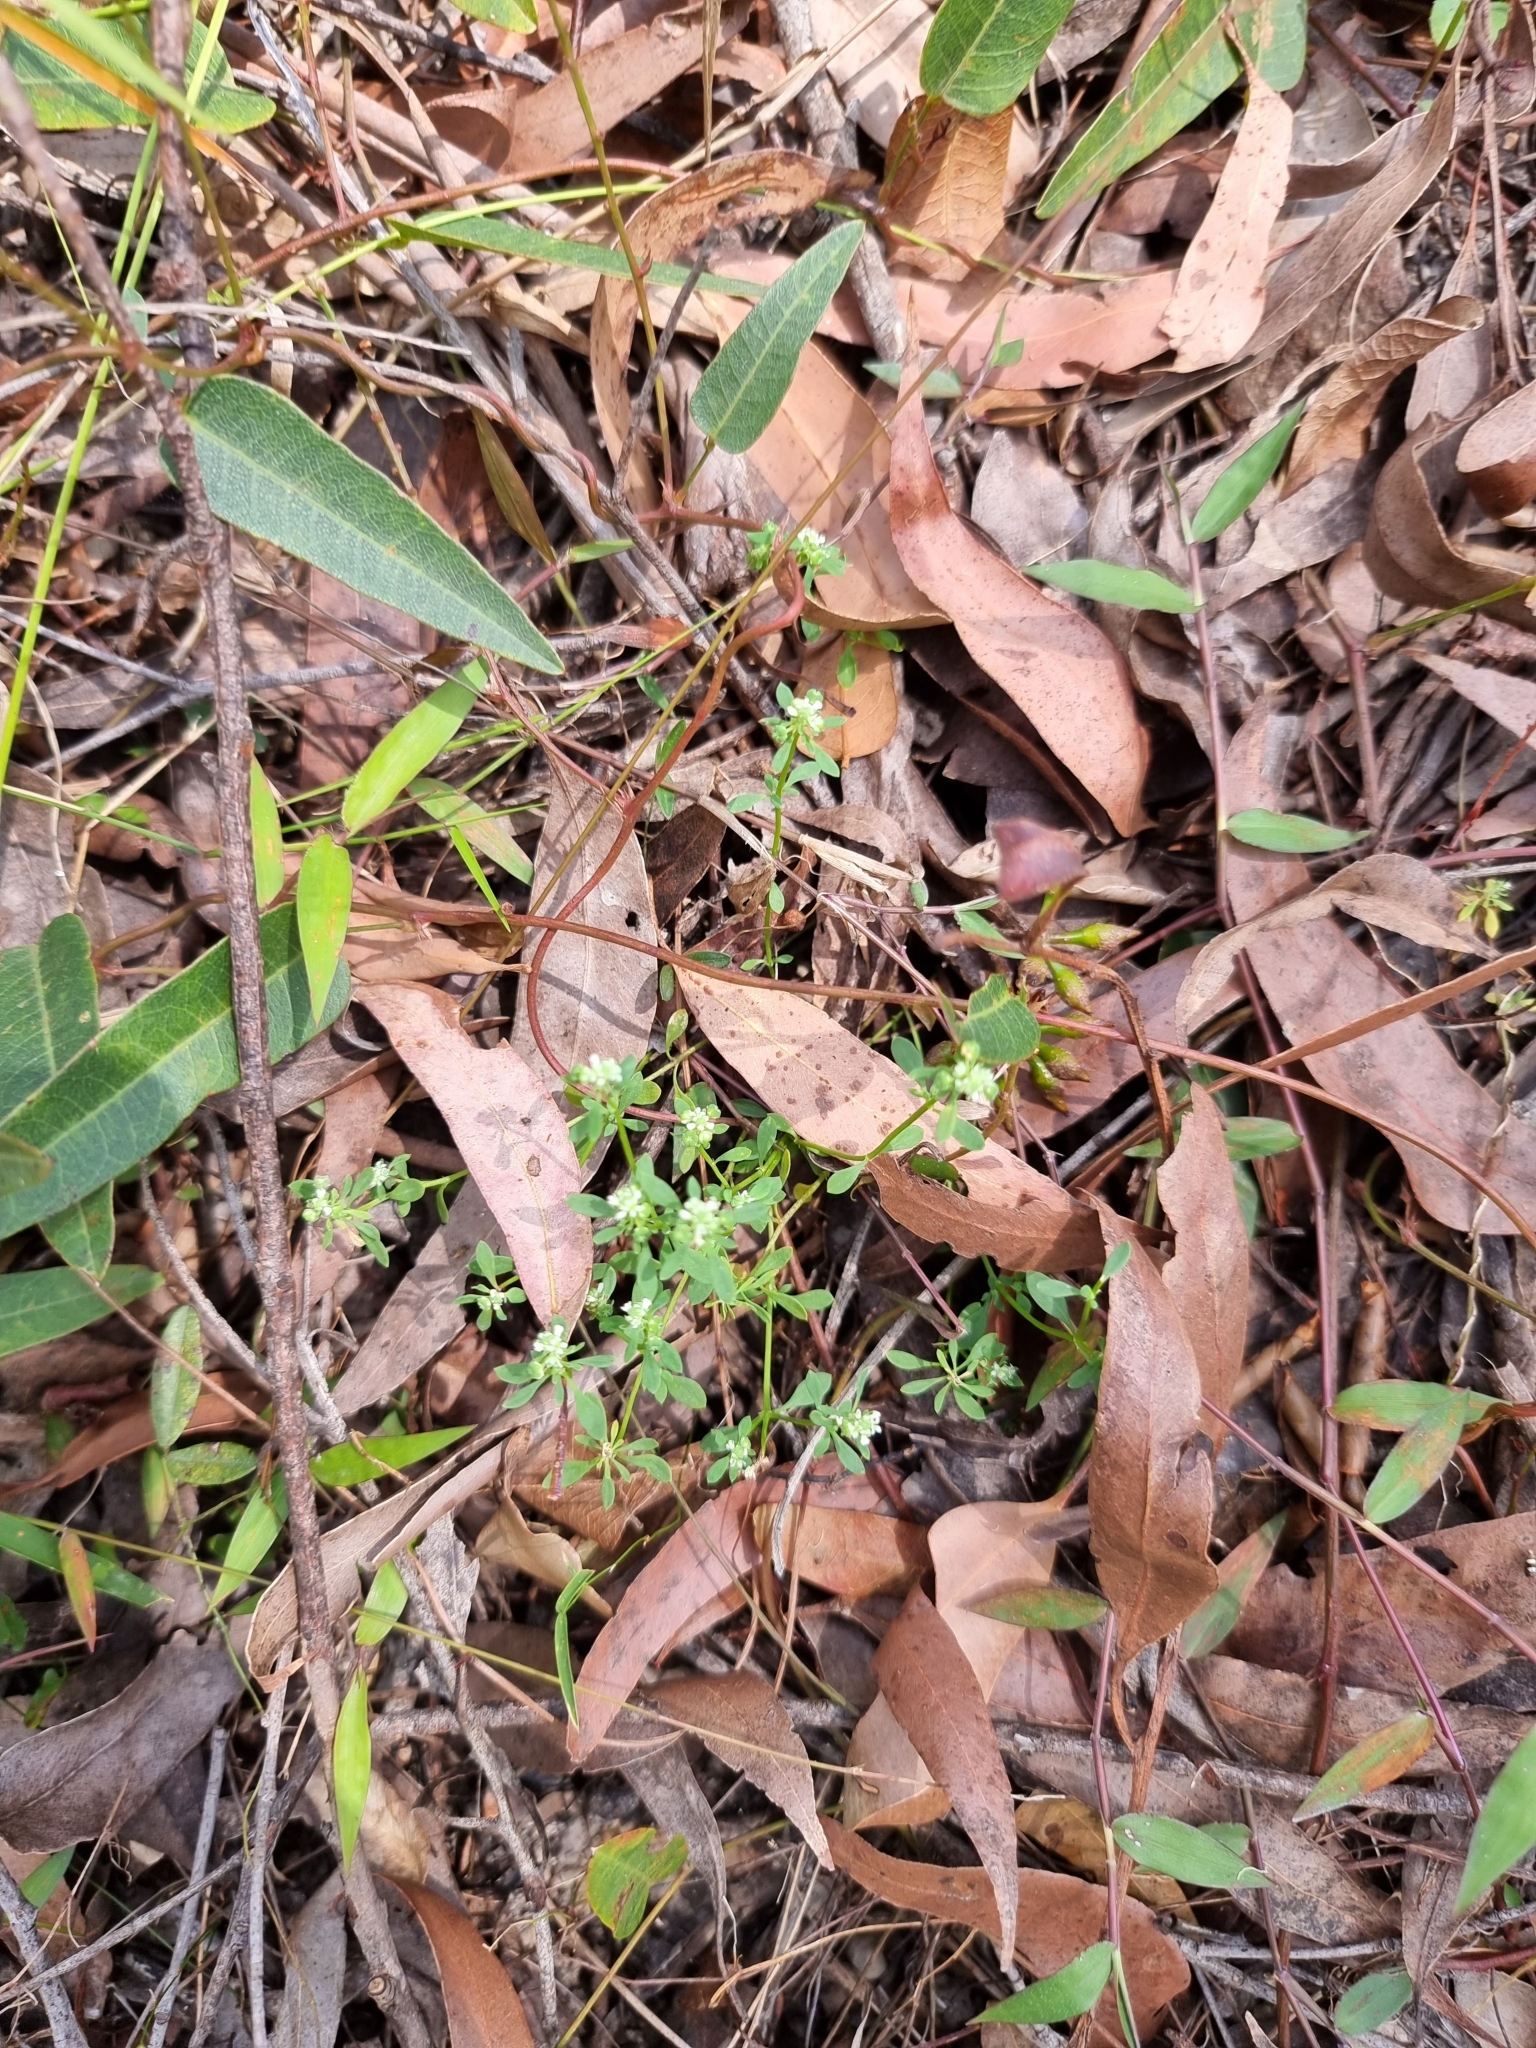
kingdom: Plantae
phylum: Tracheophyta
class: Magnoliopsida
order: Malpighiales
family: Phyllanthaceae
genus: Poranthera
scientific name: Poranthera microphylla
